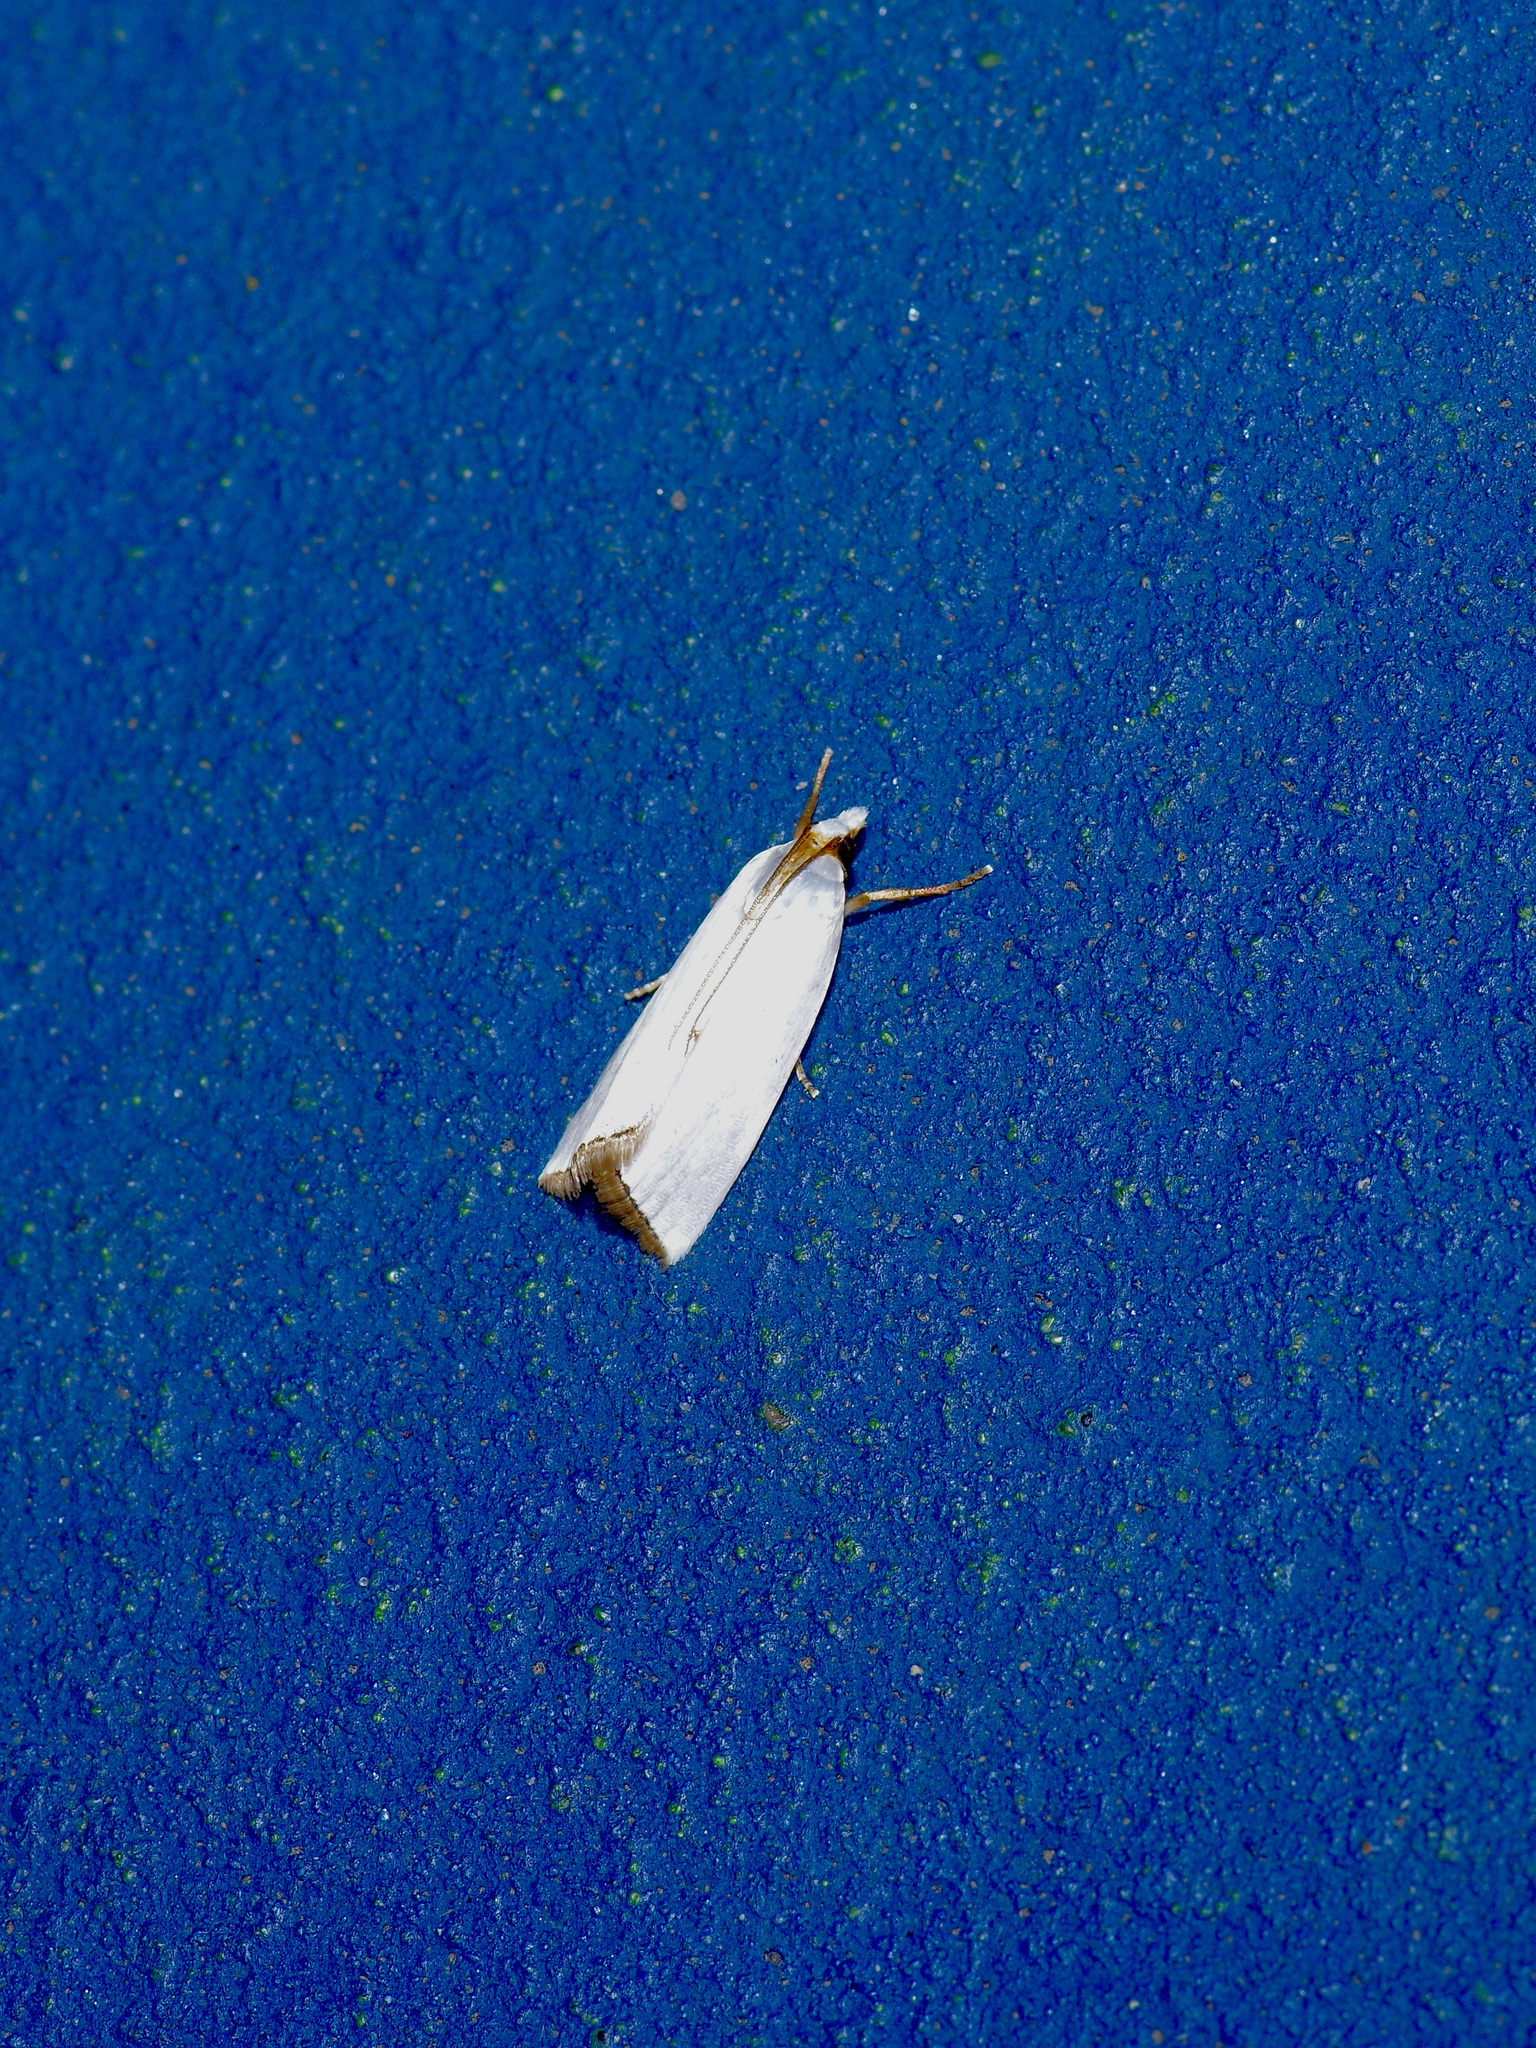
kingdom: Animalia
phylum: Arthropoda
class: Insecta
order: Lepidoptera
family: Crambidae
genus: Argyria
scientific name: Argyria nivalis
